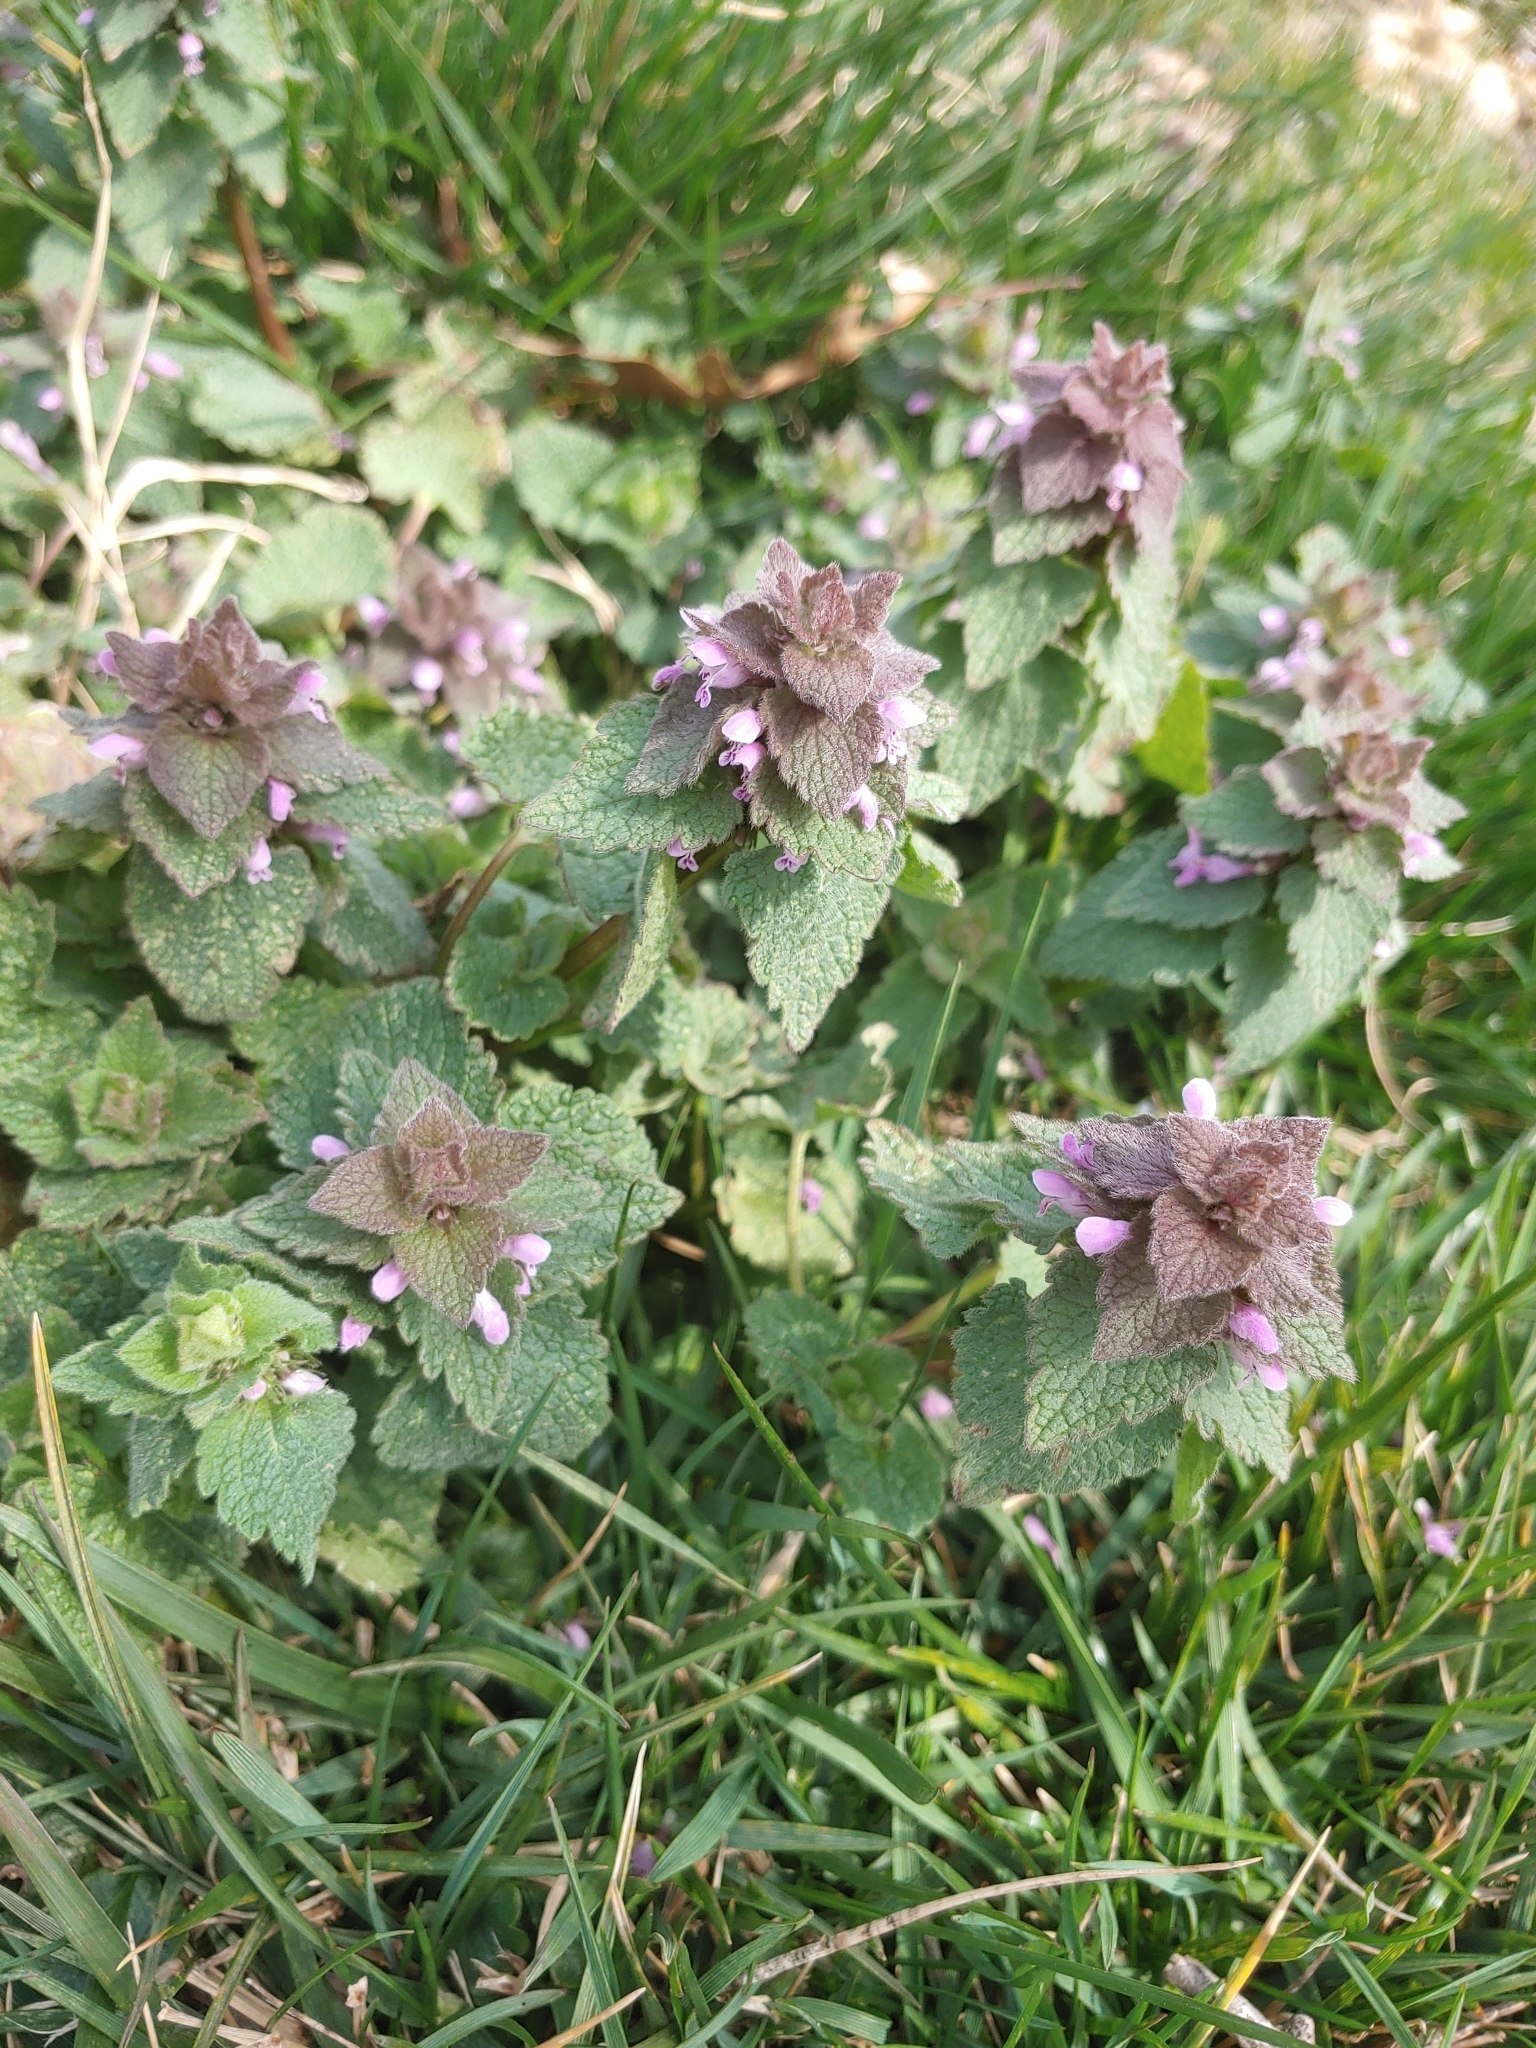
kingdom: Plantae
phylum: Tracheophyta
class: Magnoliopsida
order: Lamiales
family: Lamiaceae
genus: Lamium
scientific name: Lamium purpureum
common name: Red dead-nettle
